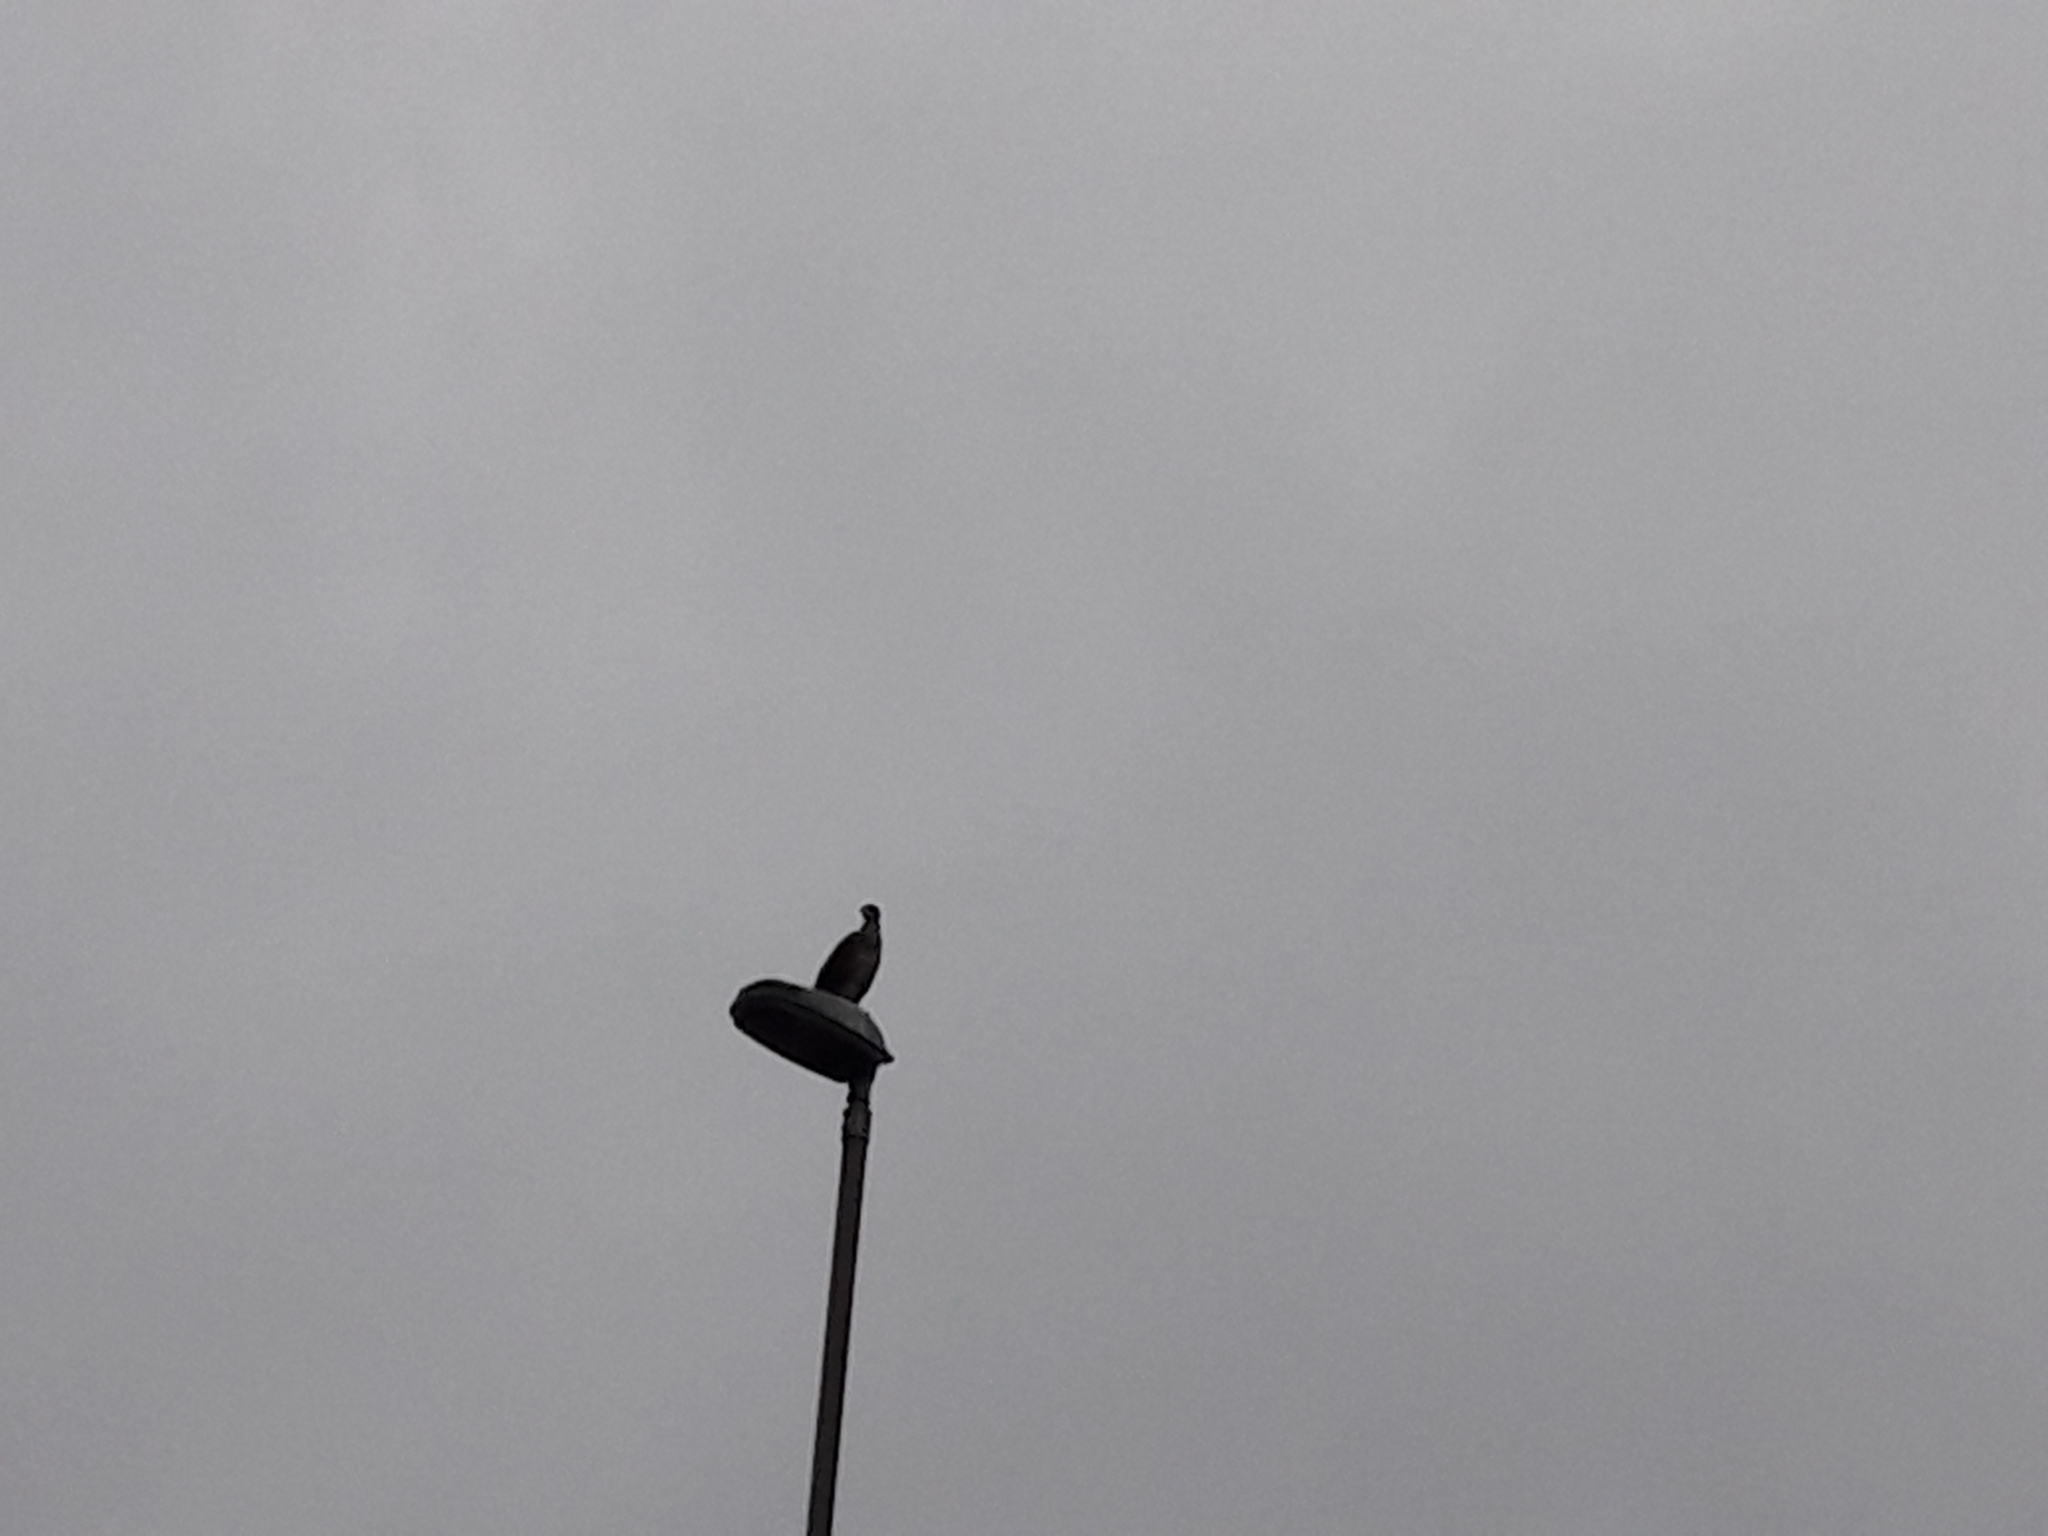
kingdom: Animalia
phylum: Chordata
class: Aves
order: Suliformes
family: Phalacrocoracidae
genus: Phalacrocorax
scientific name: Phalacrocorax carbo
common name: Great cormorant
